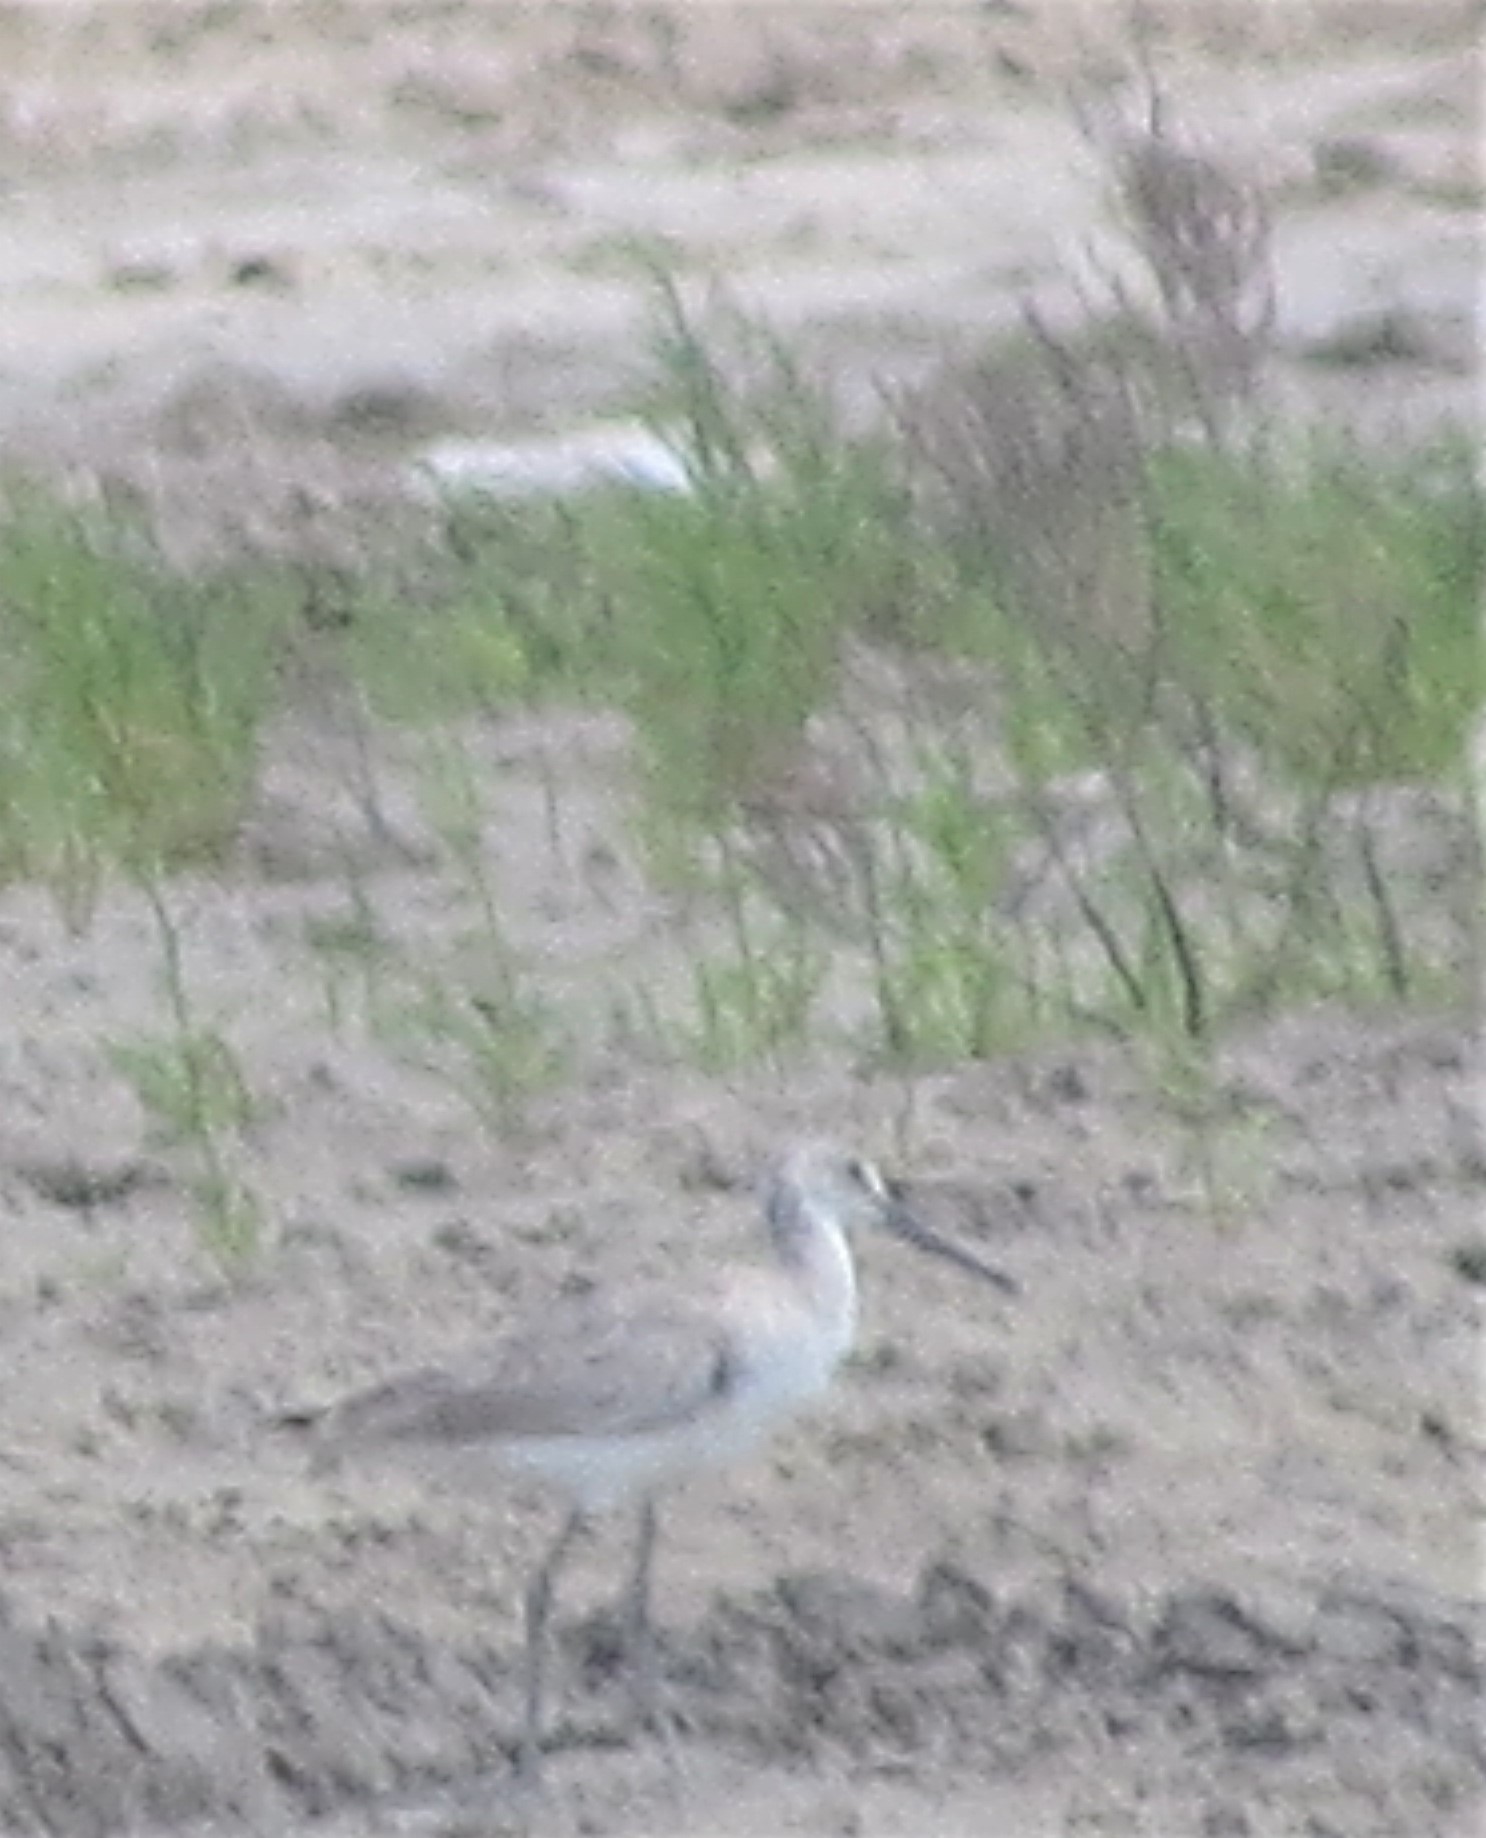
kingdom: Animalia
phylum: Chordata
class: Aves
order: Charadriiformes
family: Scolopacidae
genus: Tringa
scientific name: Tringa semipalmata
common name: Willet
